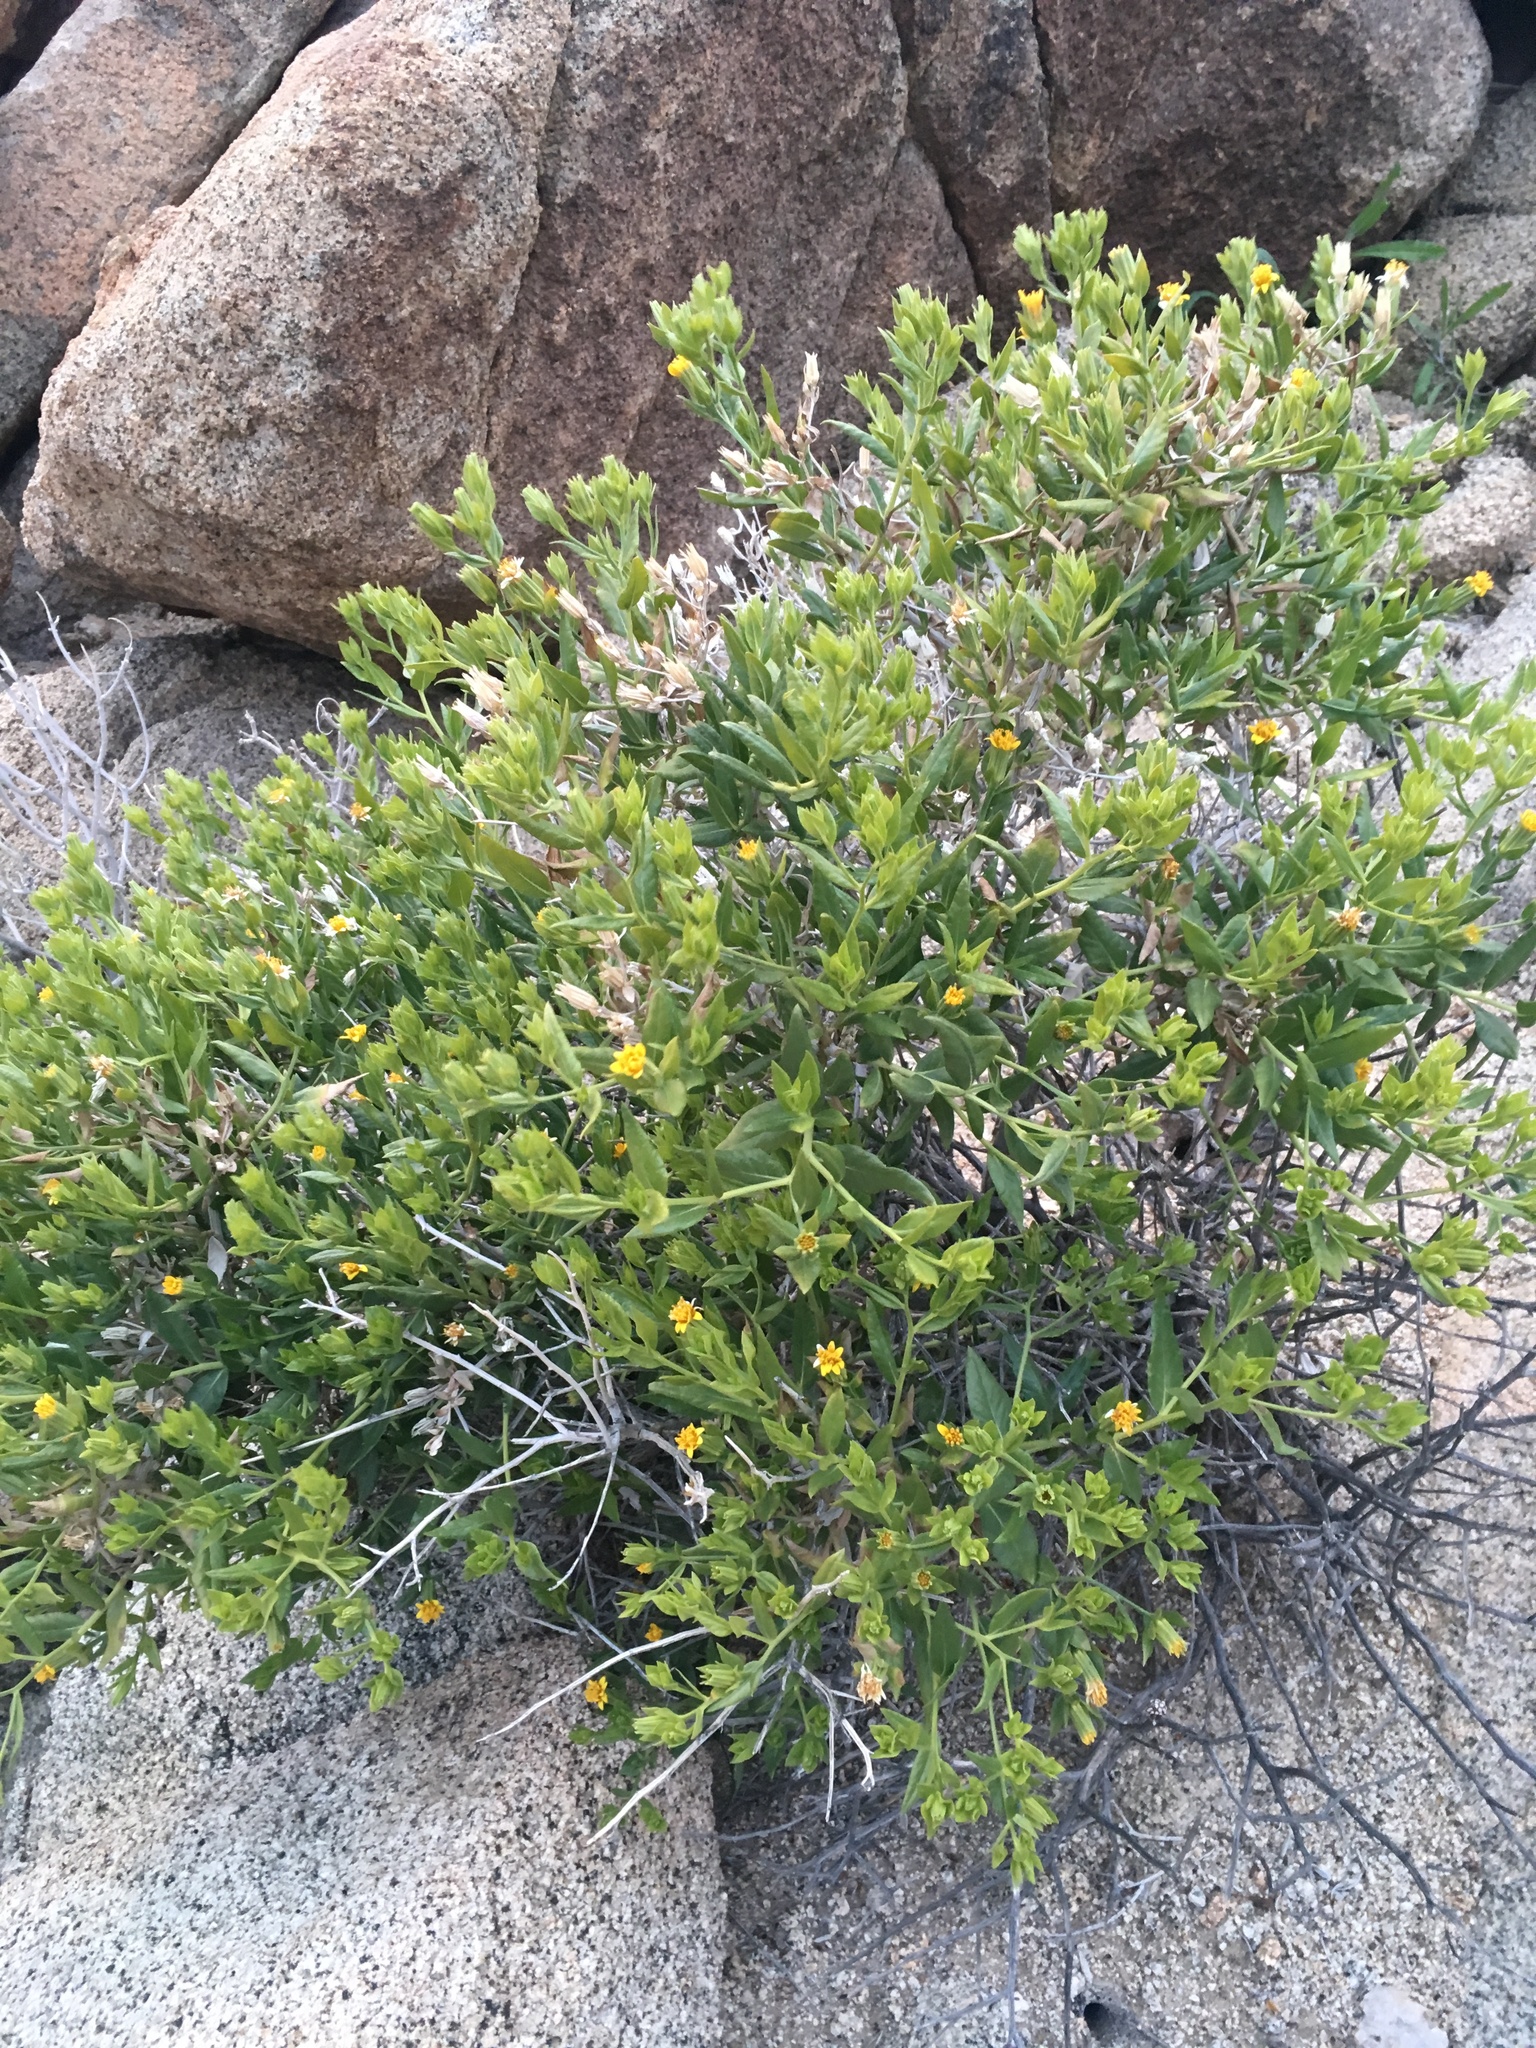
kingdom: Plantae
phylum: Tracheophyta
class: Magnoliopsida
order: Asterales
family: Asteraceae
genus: Trixis
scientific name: Trixis californica
